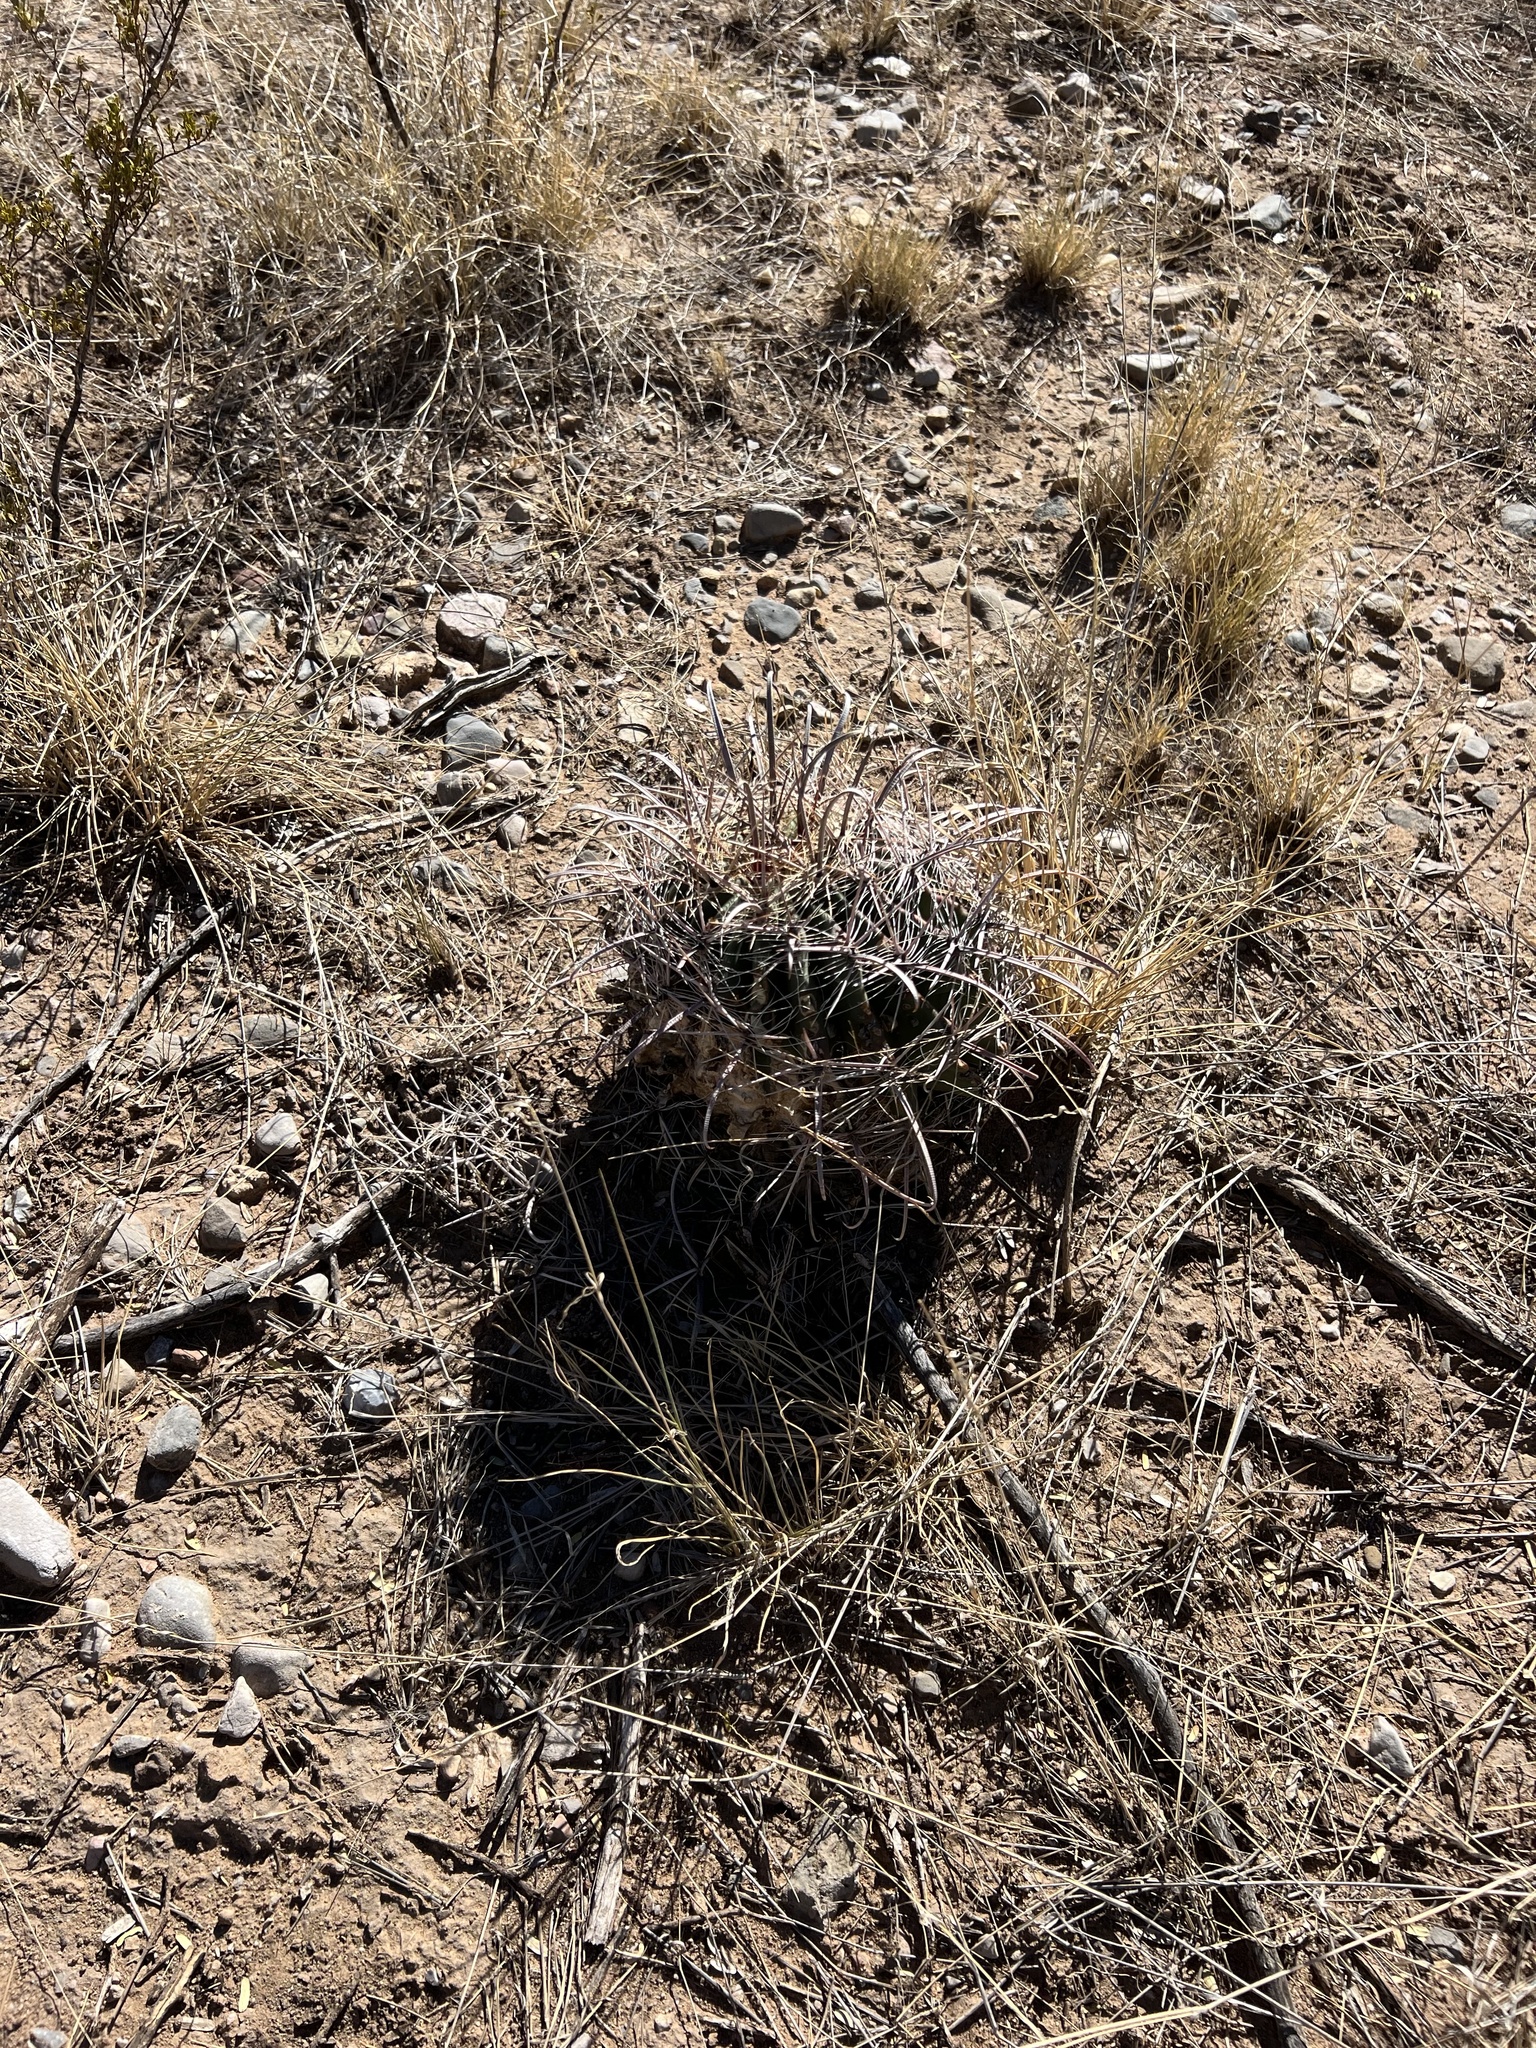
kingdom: Plantae
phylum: Tracheophyta
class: Magnoliopsida
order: Caryophyllales
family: Cactaceae
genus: Ferocactus
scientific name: Ferocactus wislizeni
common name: Candy barrel cactus
